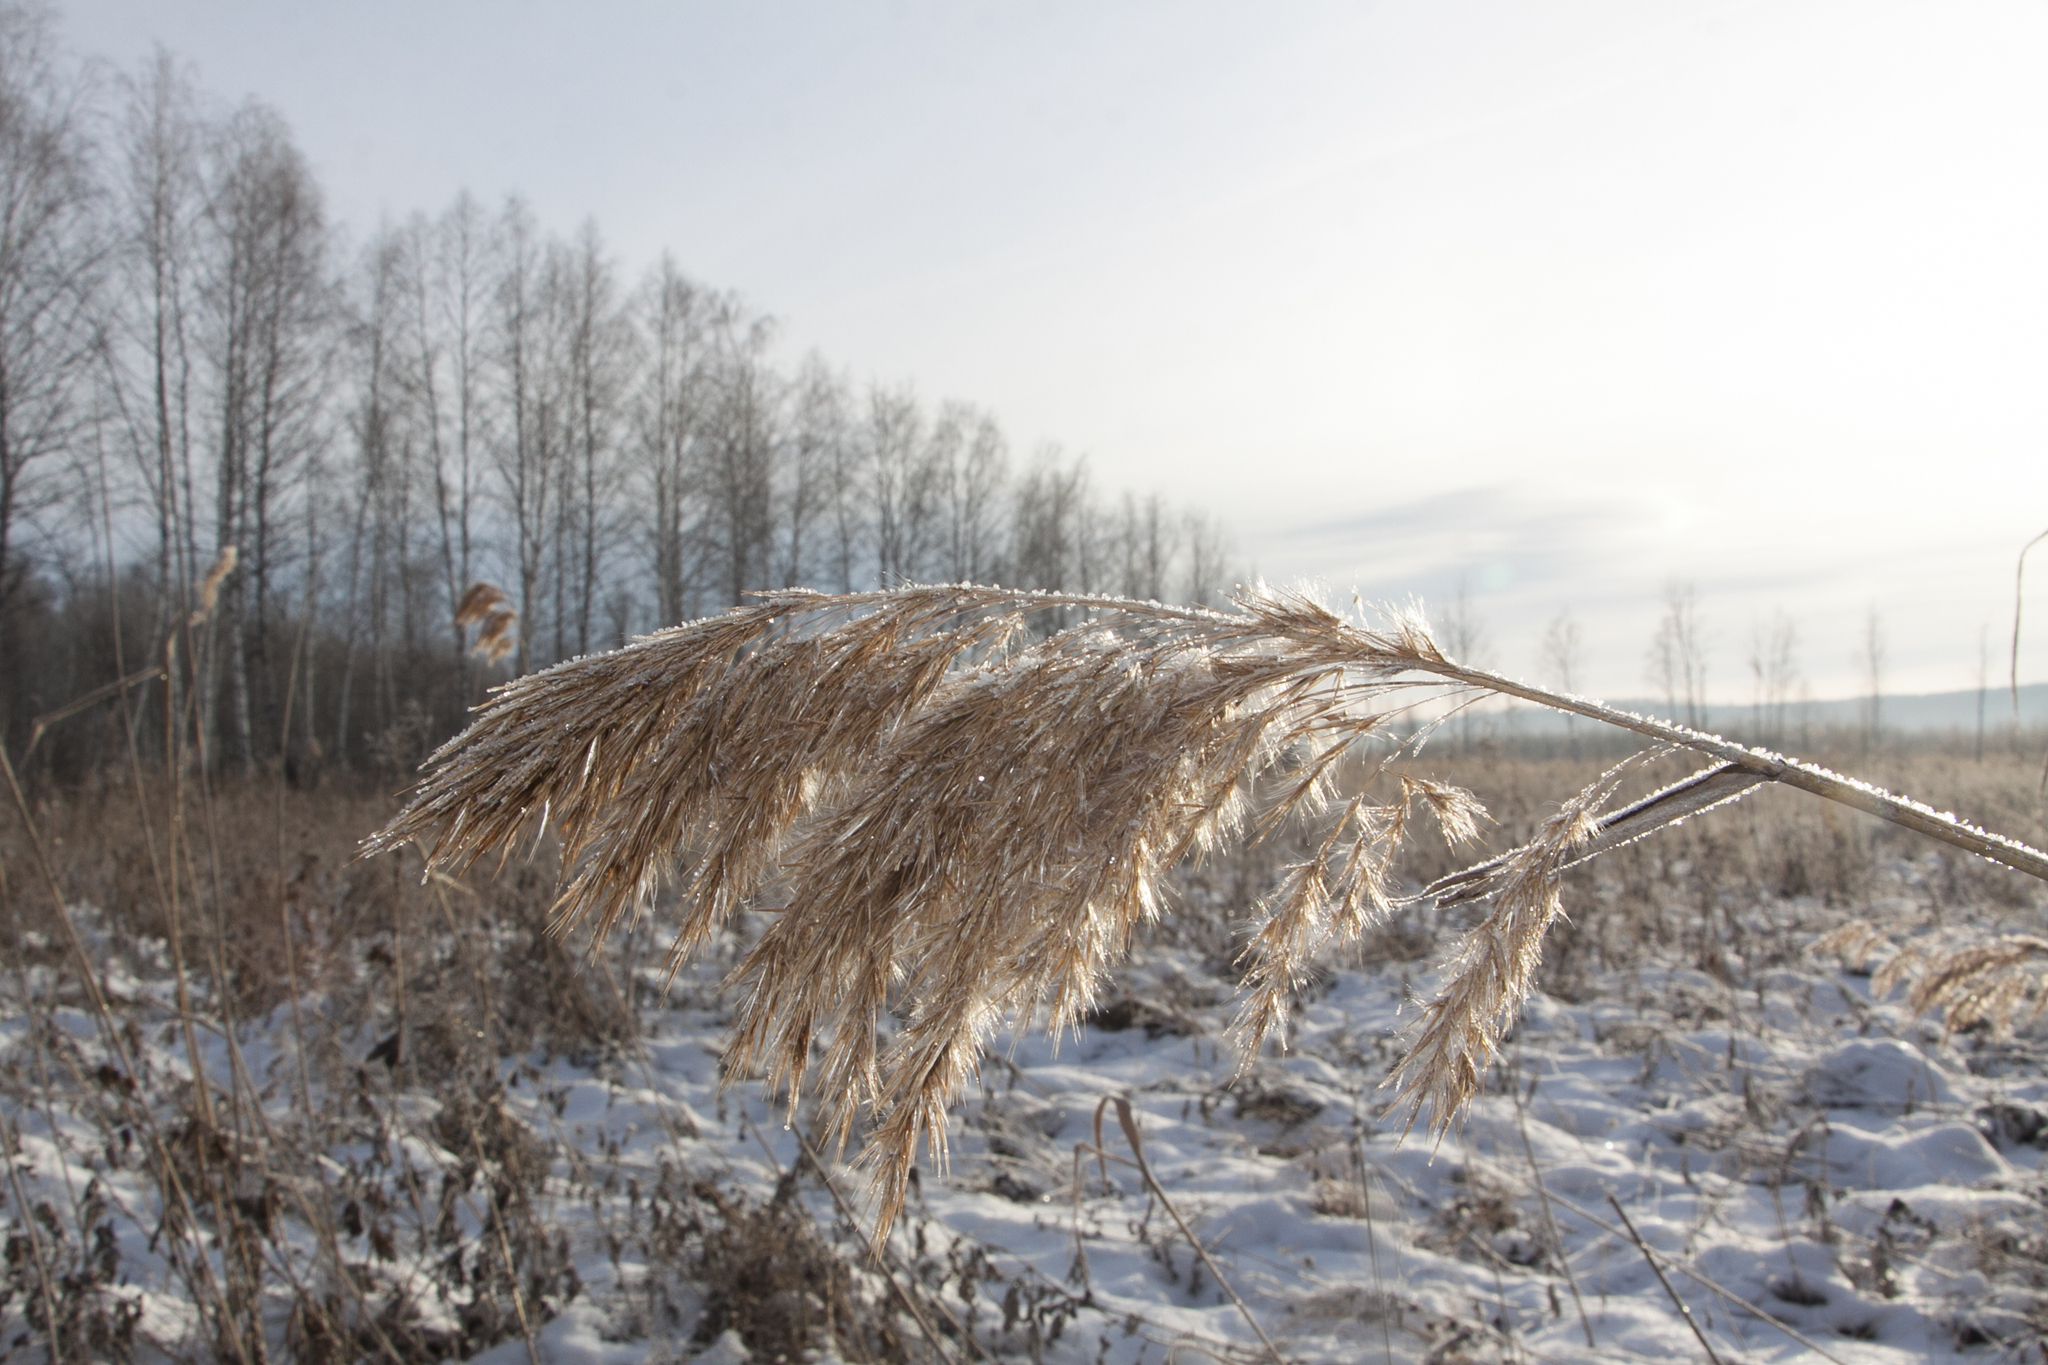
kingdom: Plantae
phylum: Tracheophyta
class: Liliopsida
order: Poales
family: Poaceae
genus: Phragmites
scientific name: Phragmites australis
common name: Common reed
